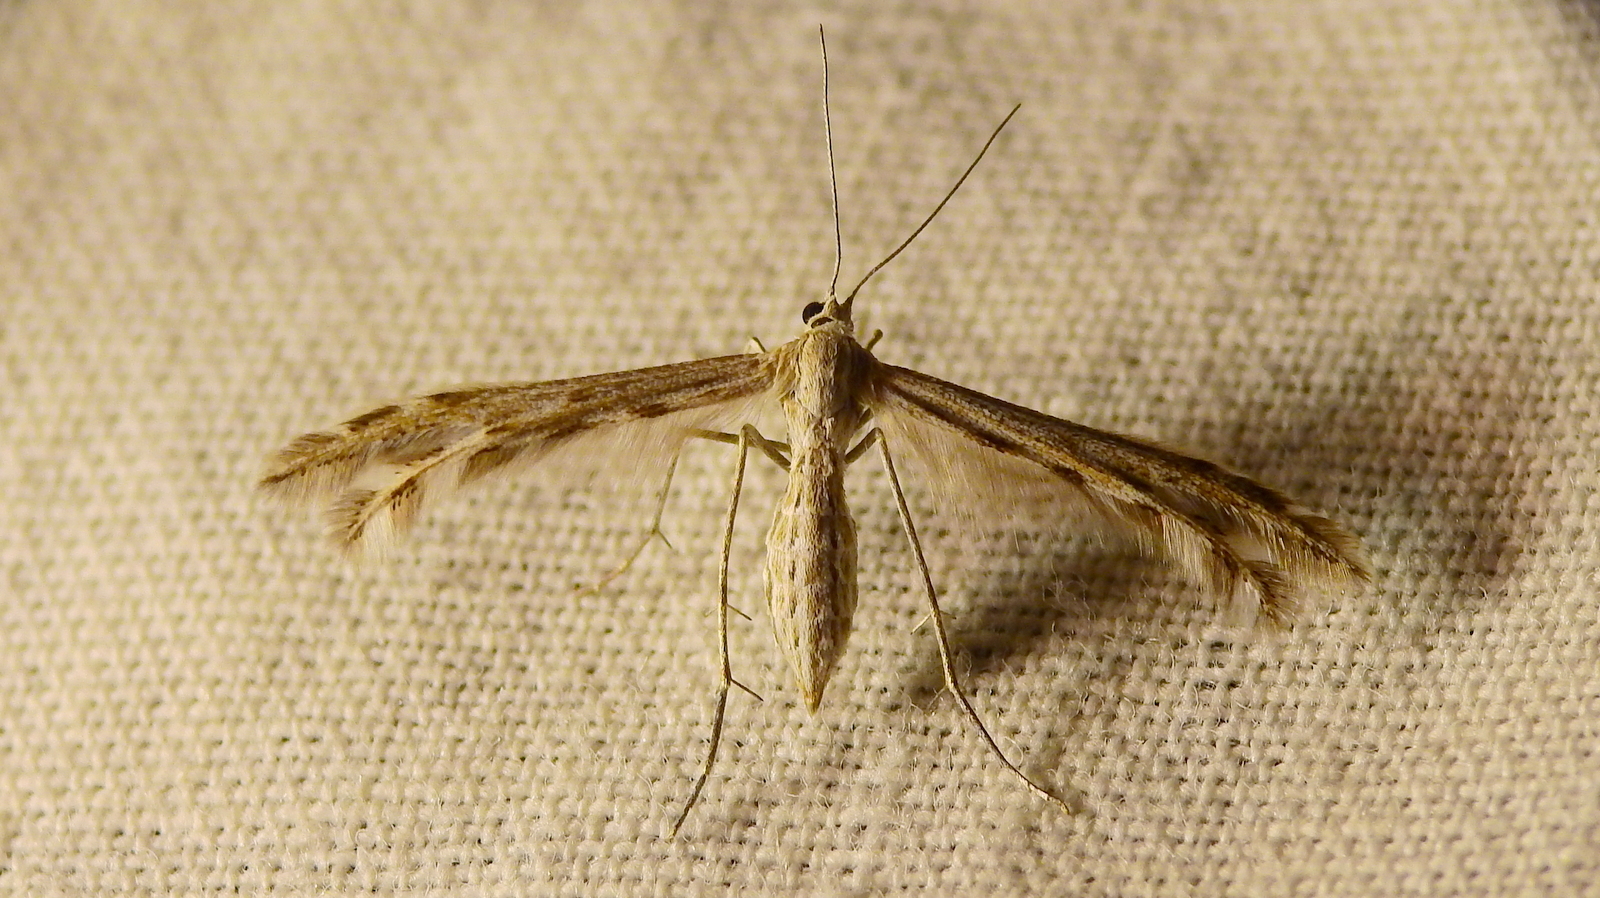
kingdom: Animalia
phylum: Arthropoda
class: Insecta
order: Lepidoptera
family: Pterophoridae
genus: Singularia
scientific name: Singularia alternaria
